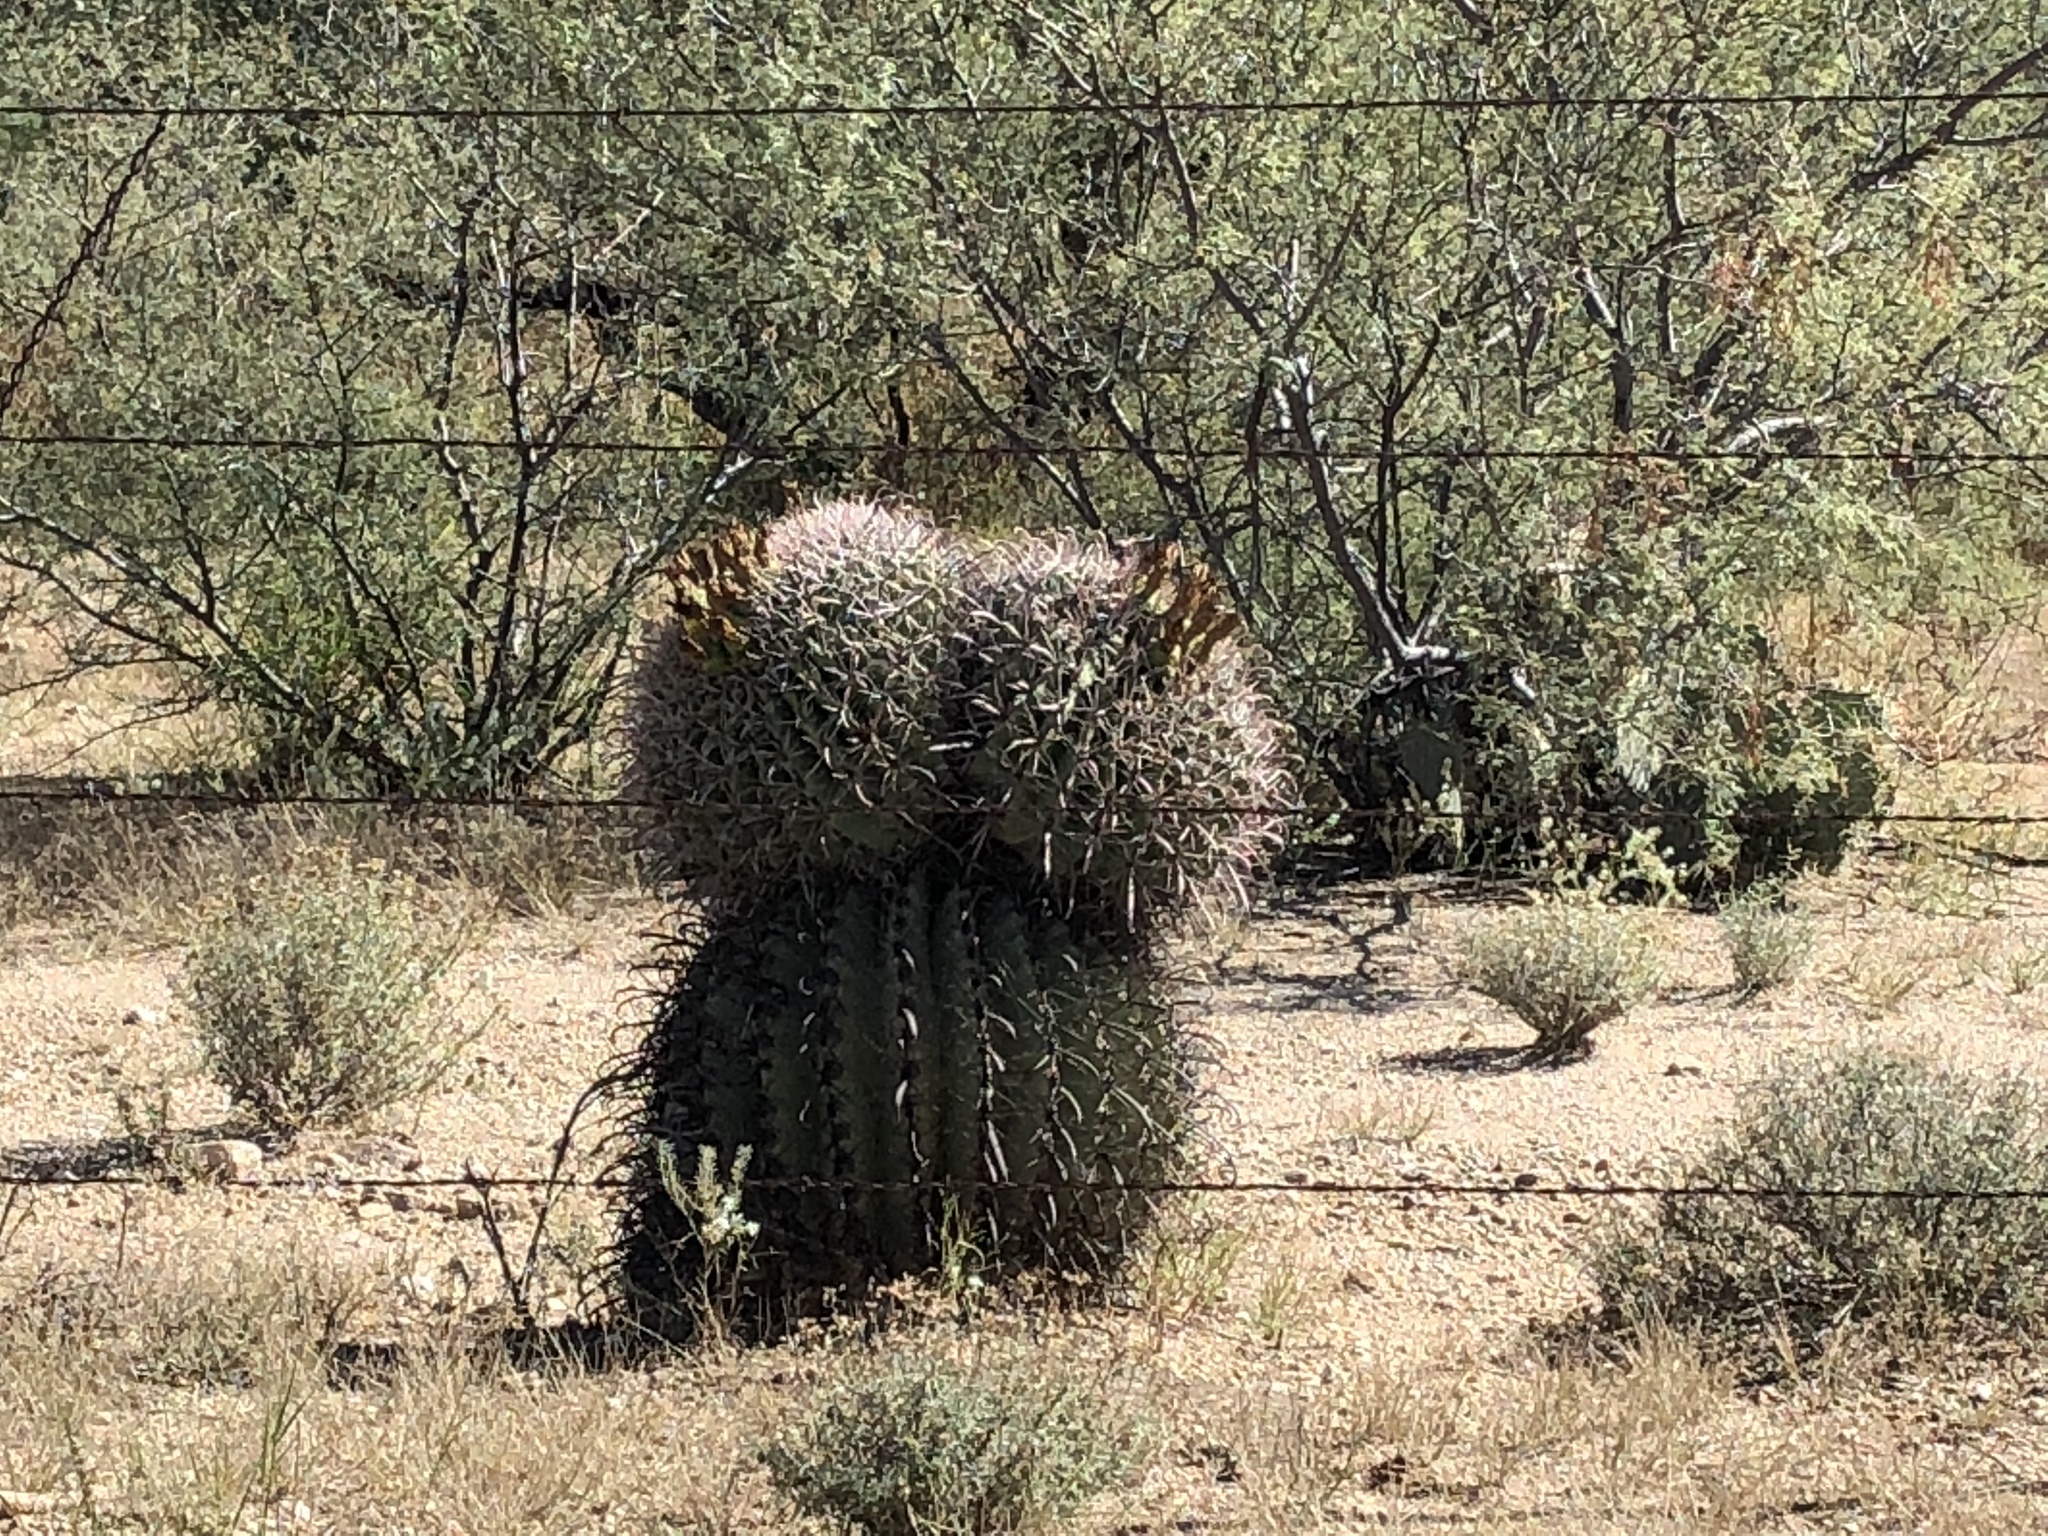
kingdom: Plantae
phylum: Tracheophyta
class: Magnoliopsida
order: Caryophyllales
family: Cactaceae
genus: Ferocactus
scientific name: Ferocactus wislizeni
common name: Candy barrel cactus
